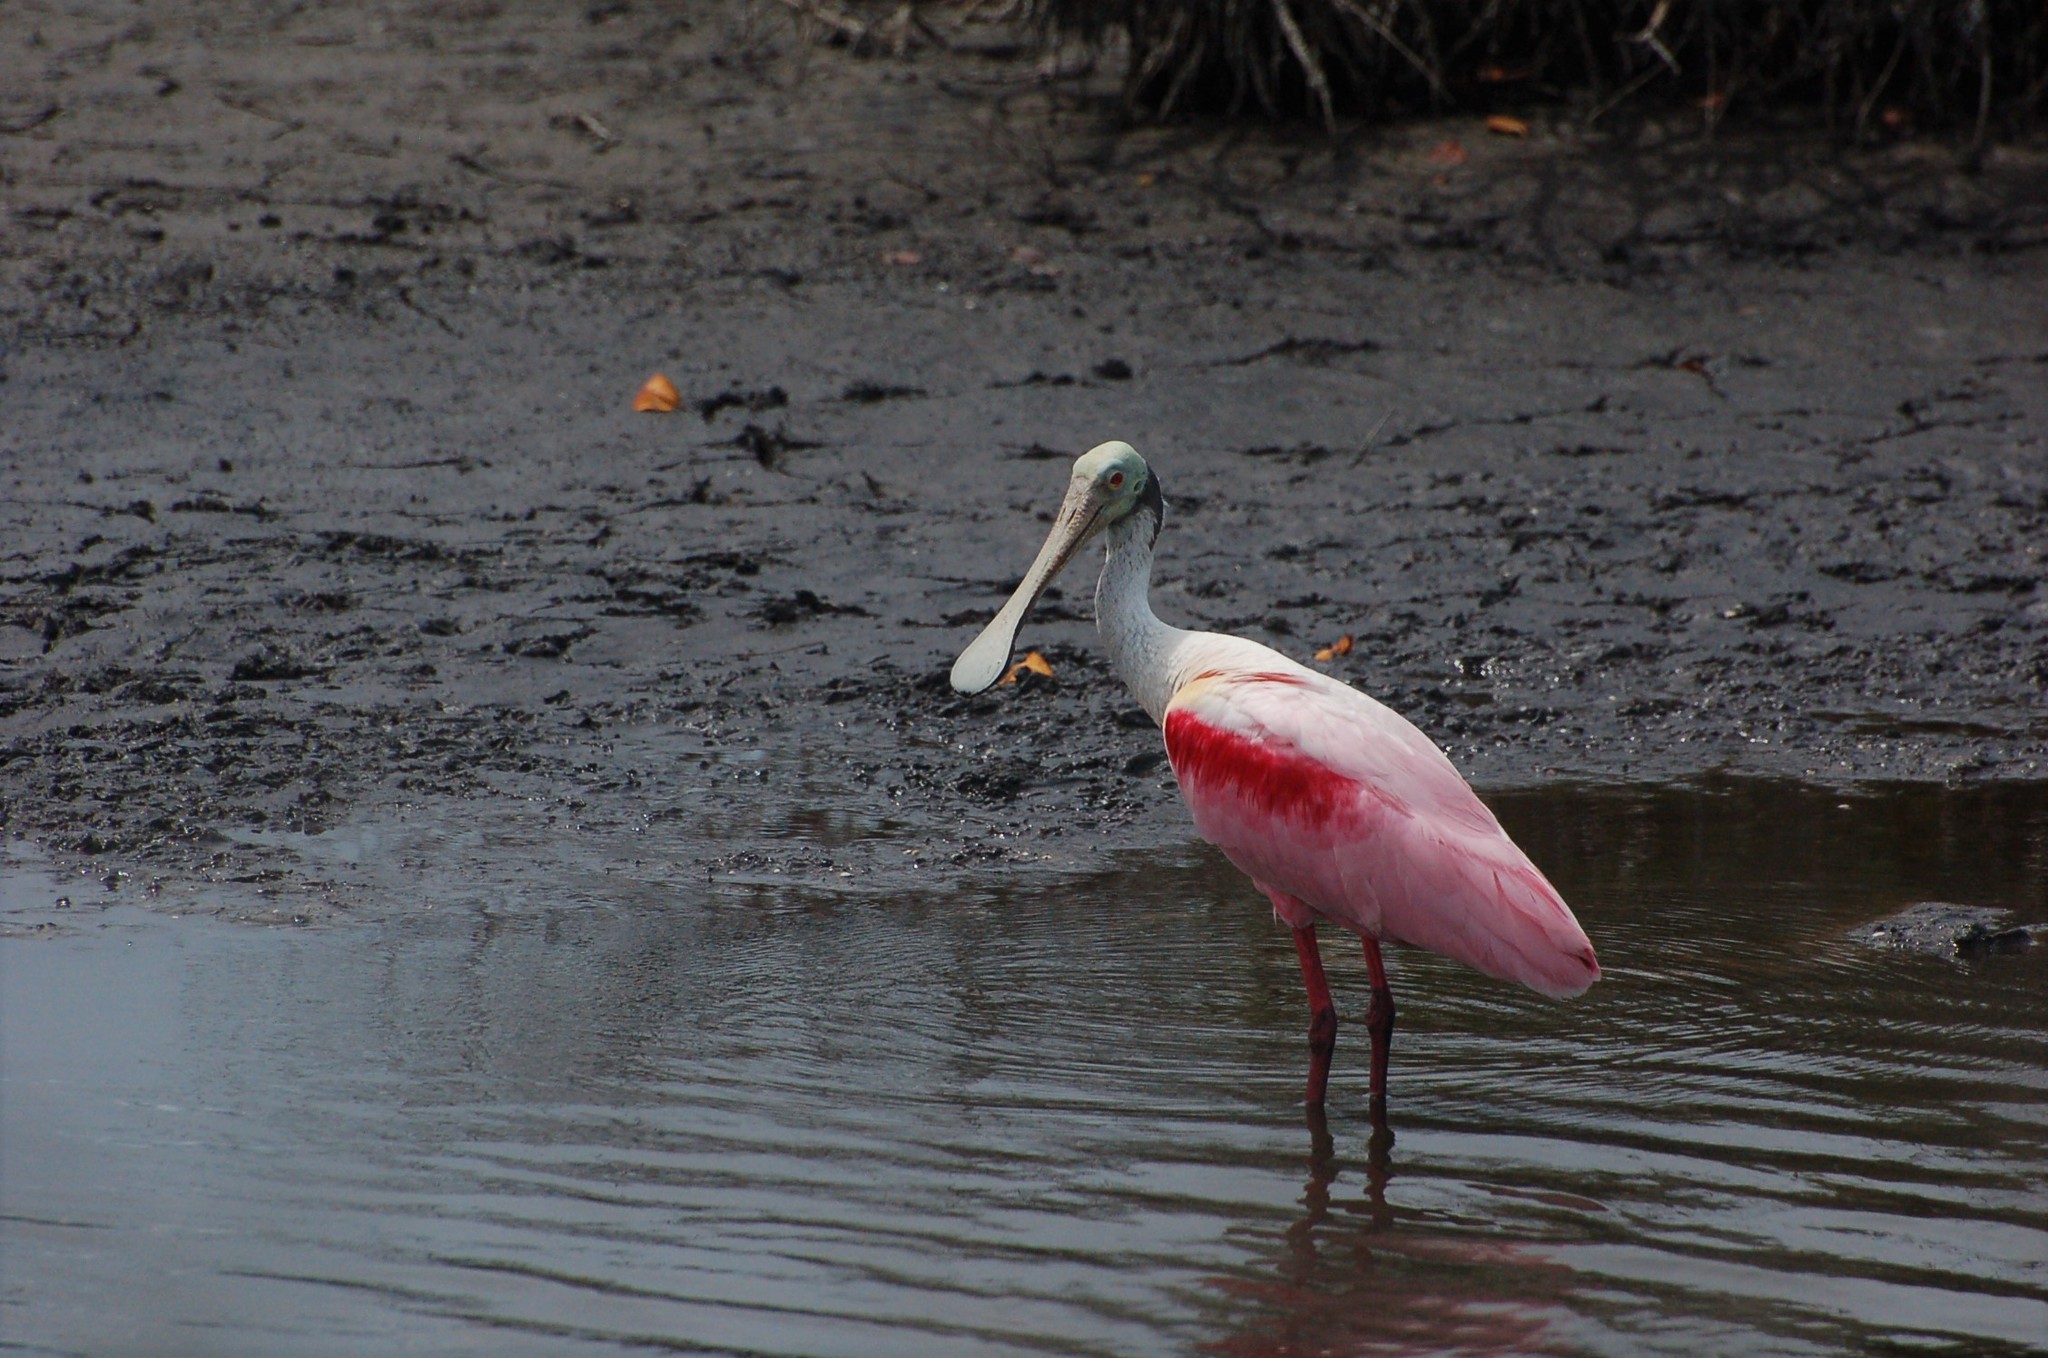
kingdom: Animalia
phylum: Chordata
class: Aves
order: Pelecaniformes
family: Threskiornithidae
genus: Platalea
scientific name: Platalea ajaja
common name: Roseate spoonbill
